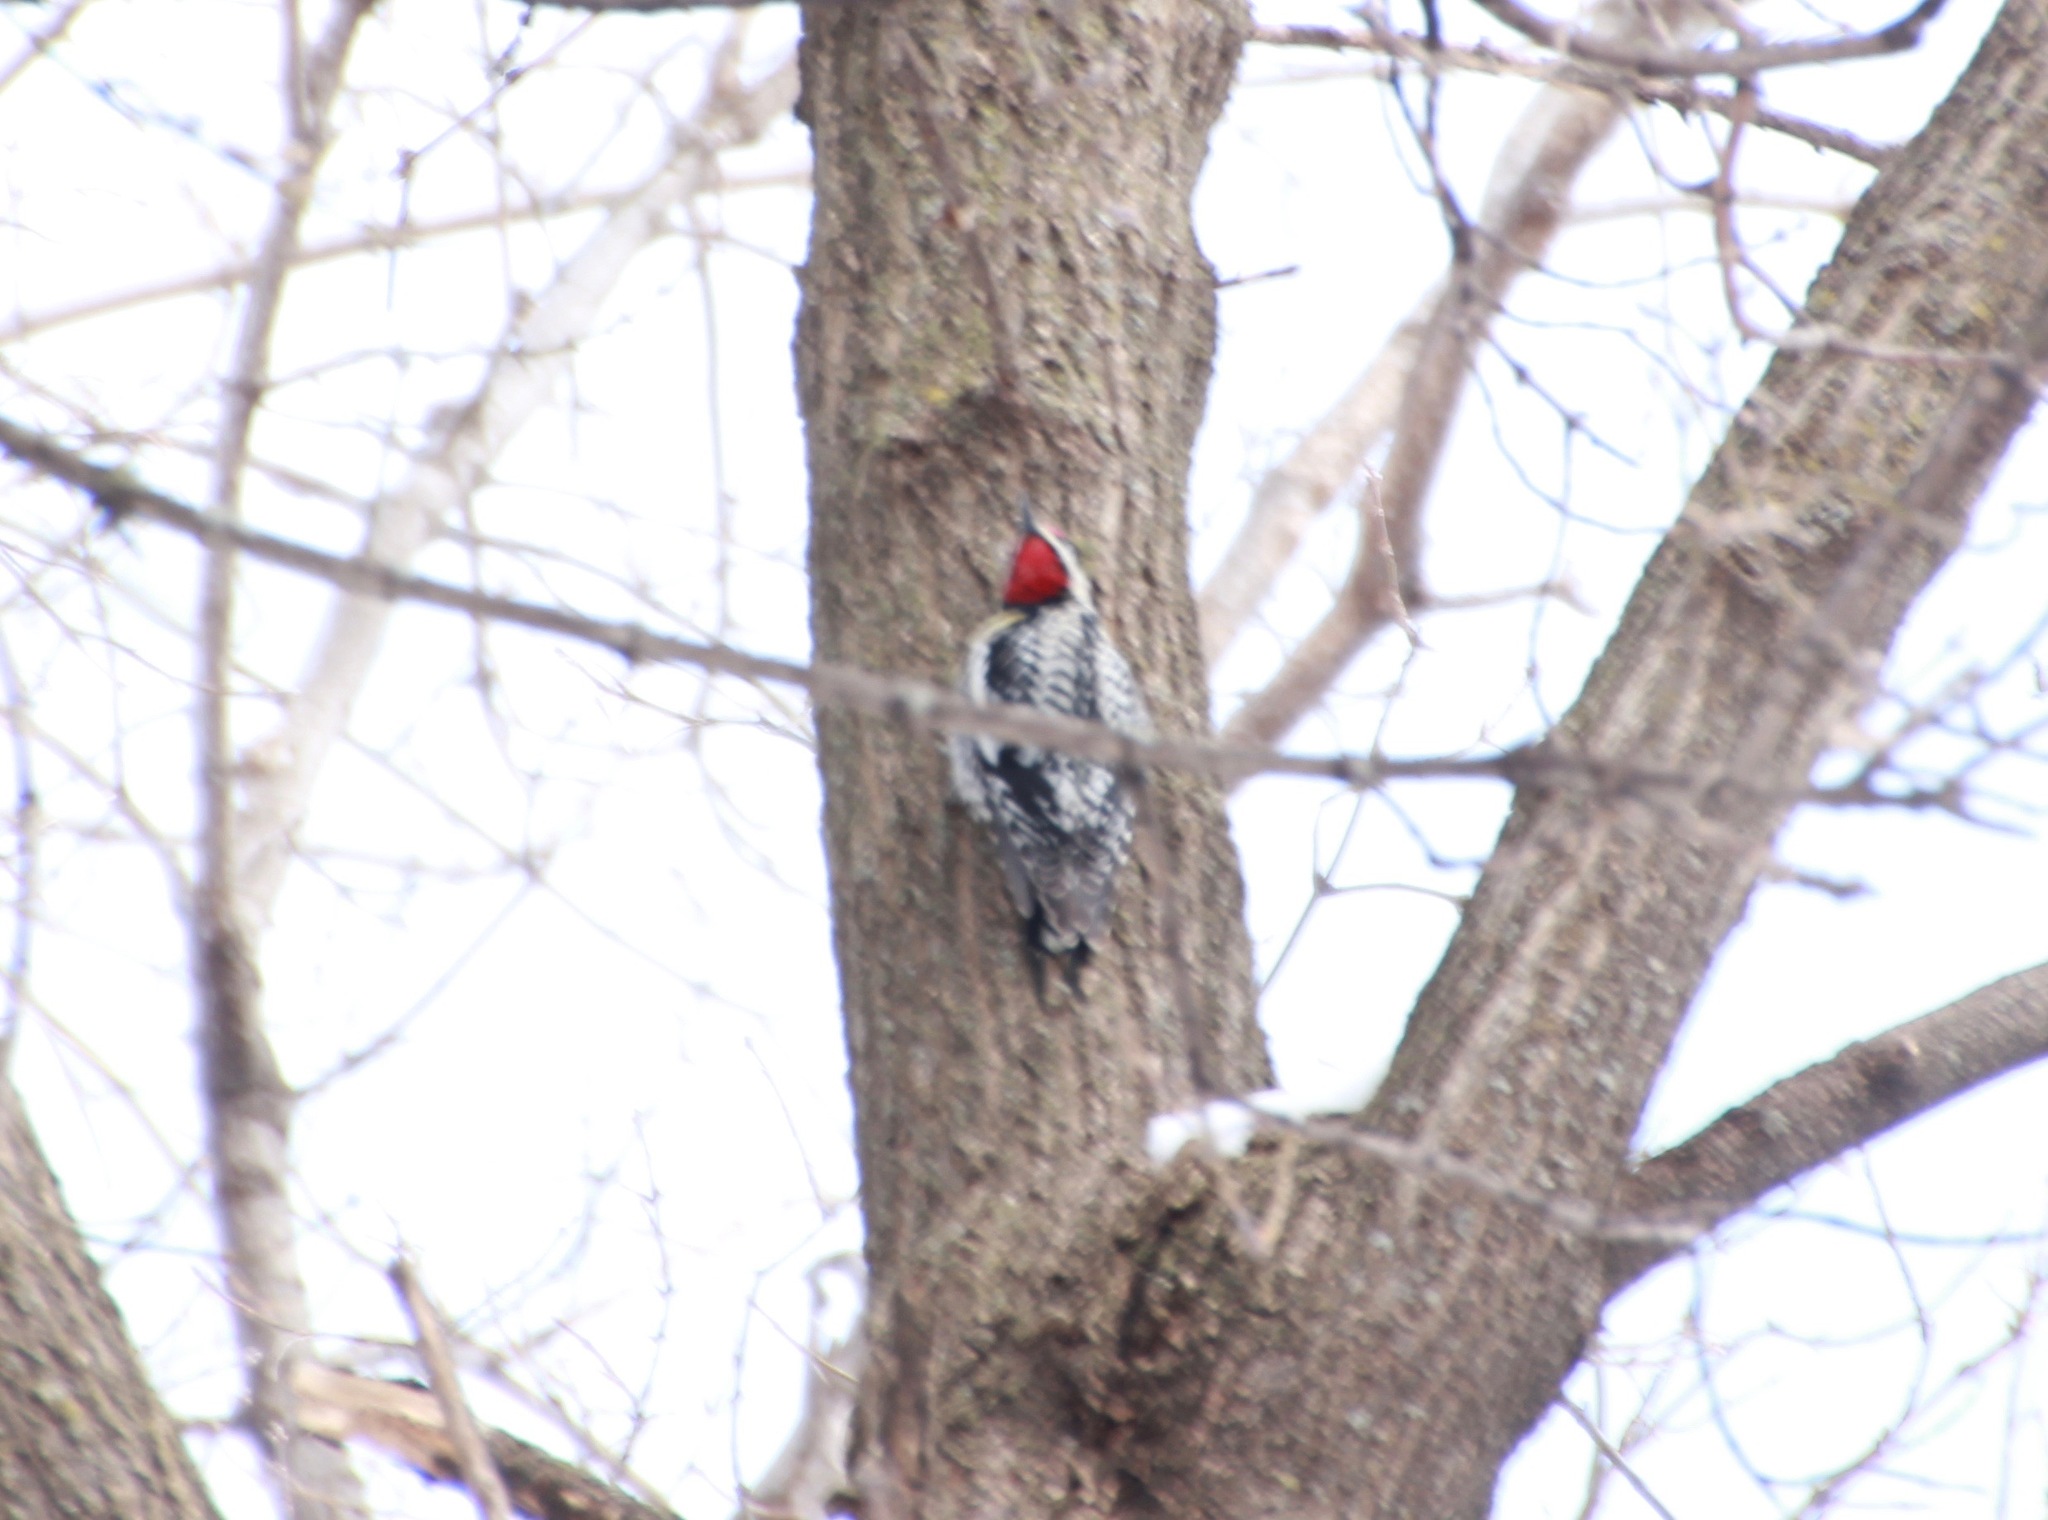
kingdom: Animalia
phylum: Chordata
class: Aves
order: Piciformes
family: Picidae
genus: Sphyrapicus
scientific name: Sphyrapicus varius
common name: Yellow-bellied sapsucker
